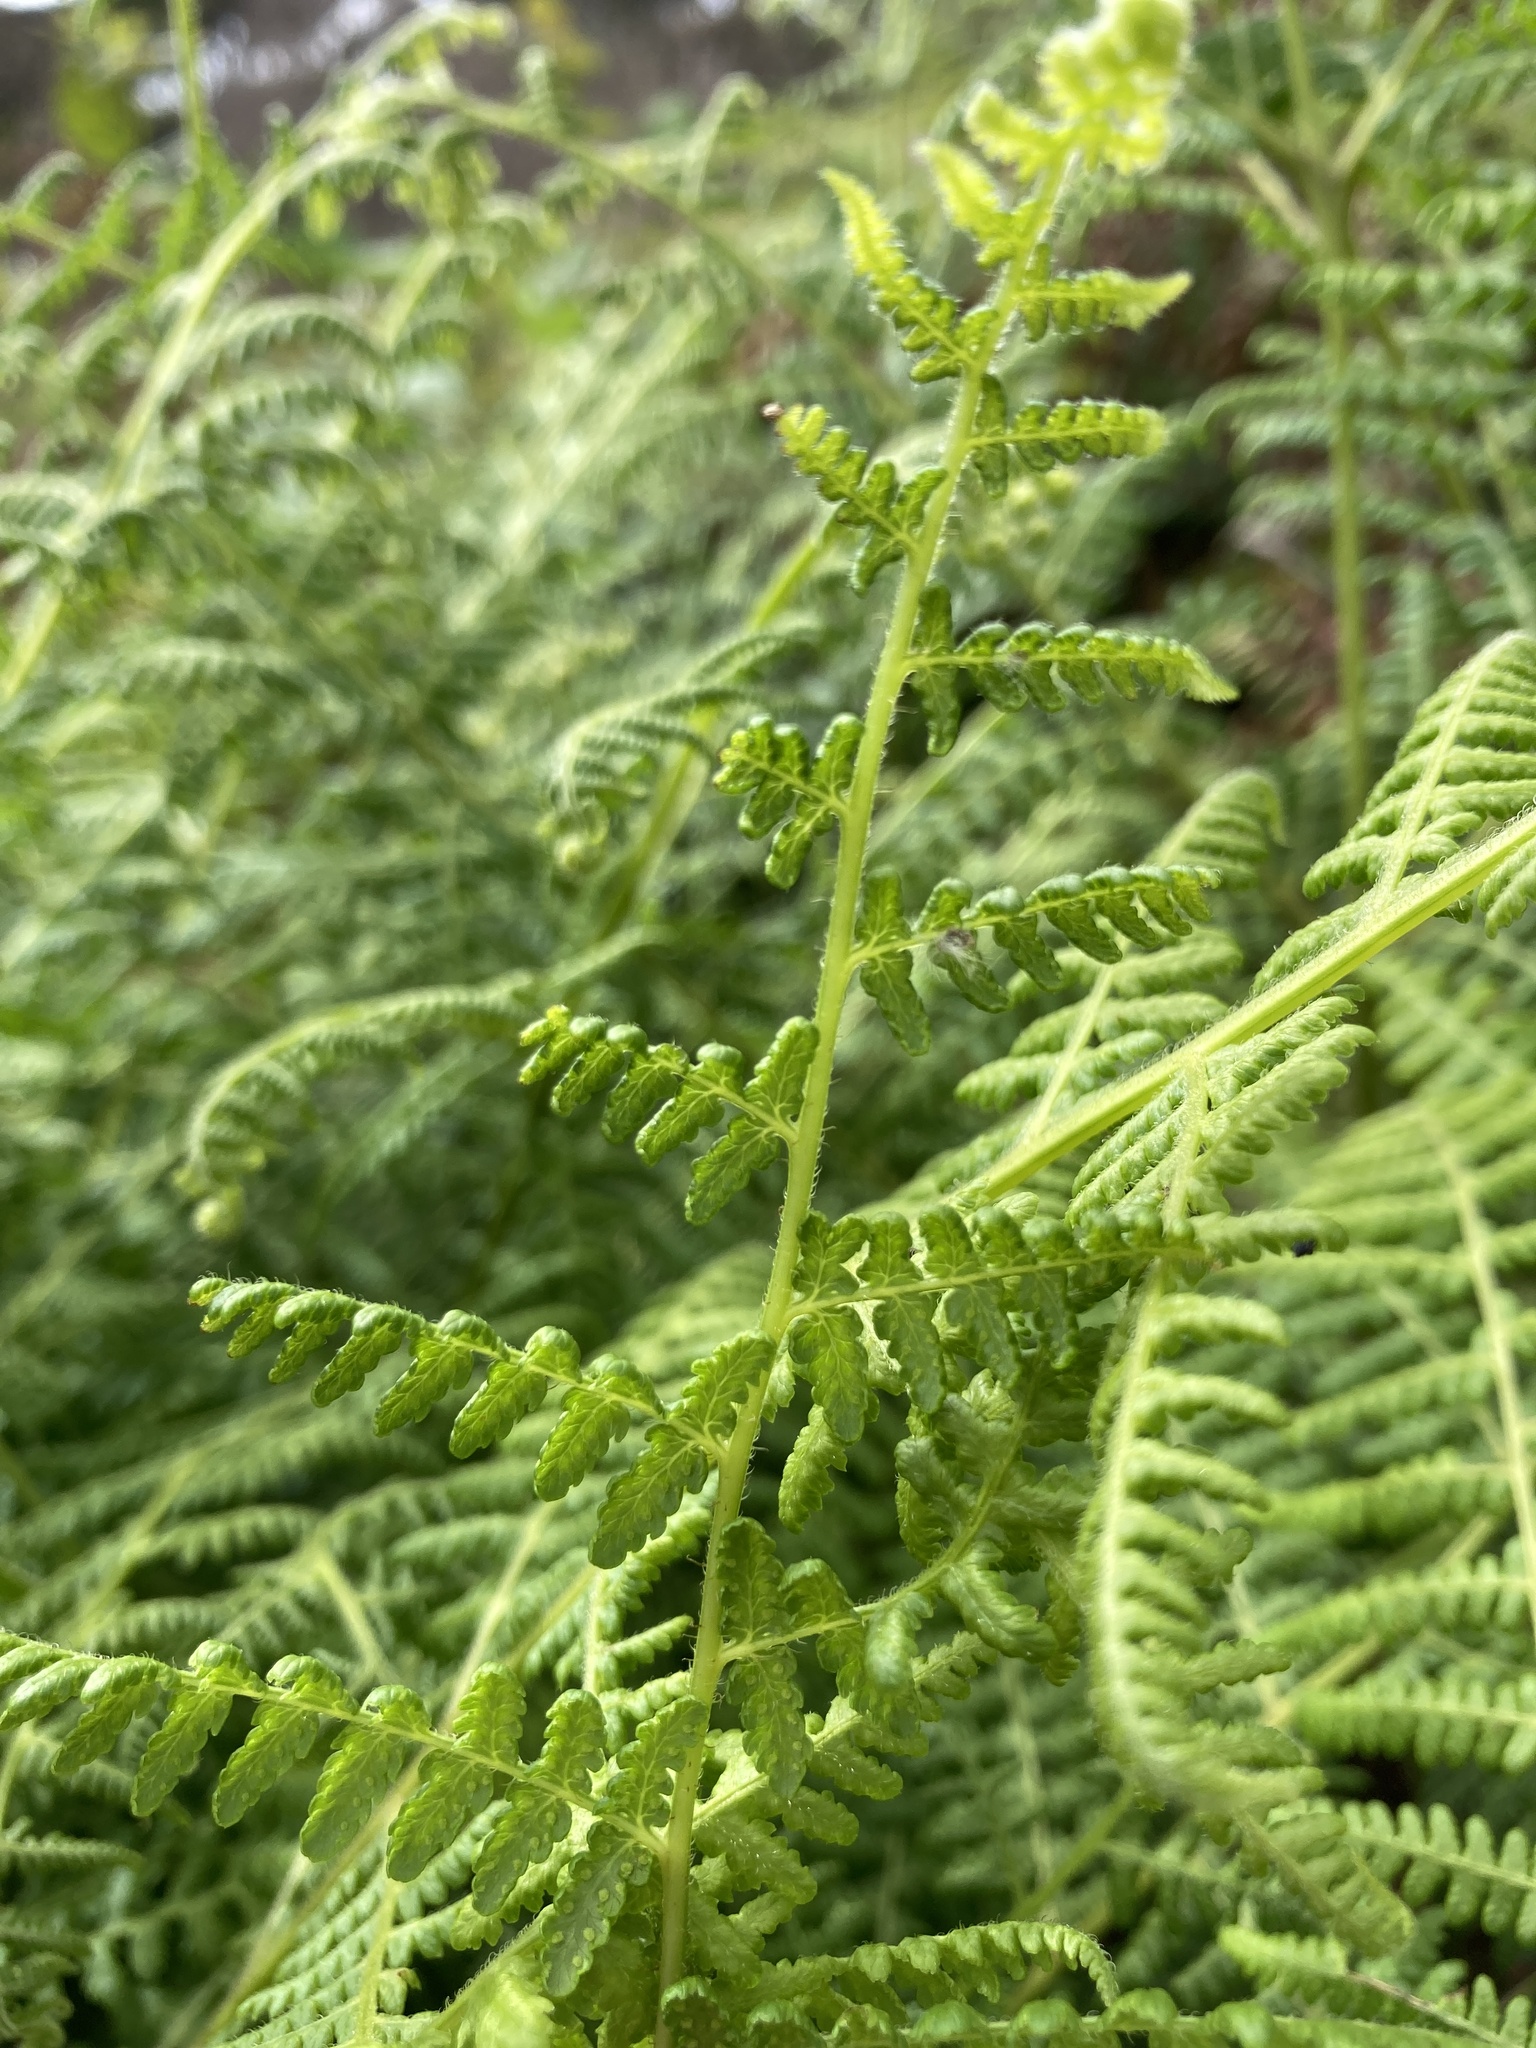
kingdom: Plantae
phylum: Tracheophyta
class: Polypodiopsida
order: Polypodiales
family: Dennstaedtiaceae
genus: Hypolepis
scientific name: Hypolepis ambigua
